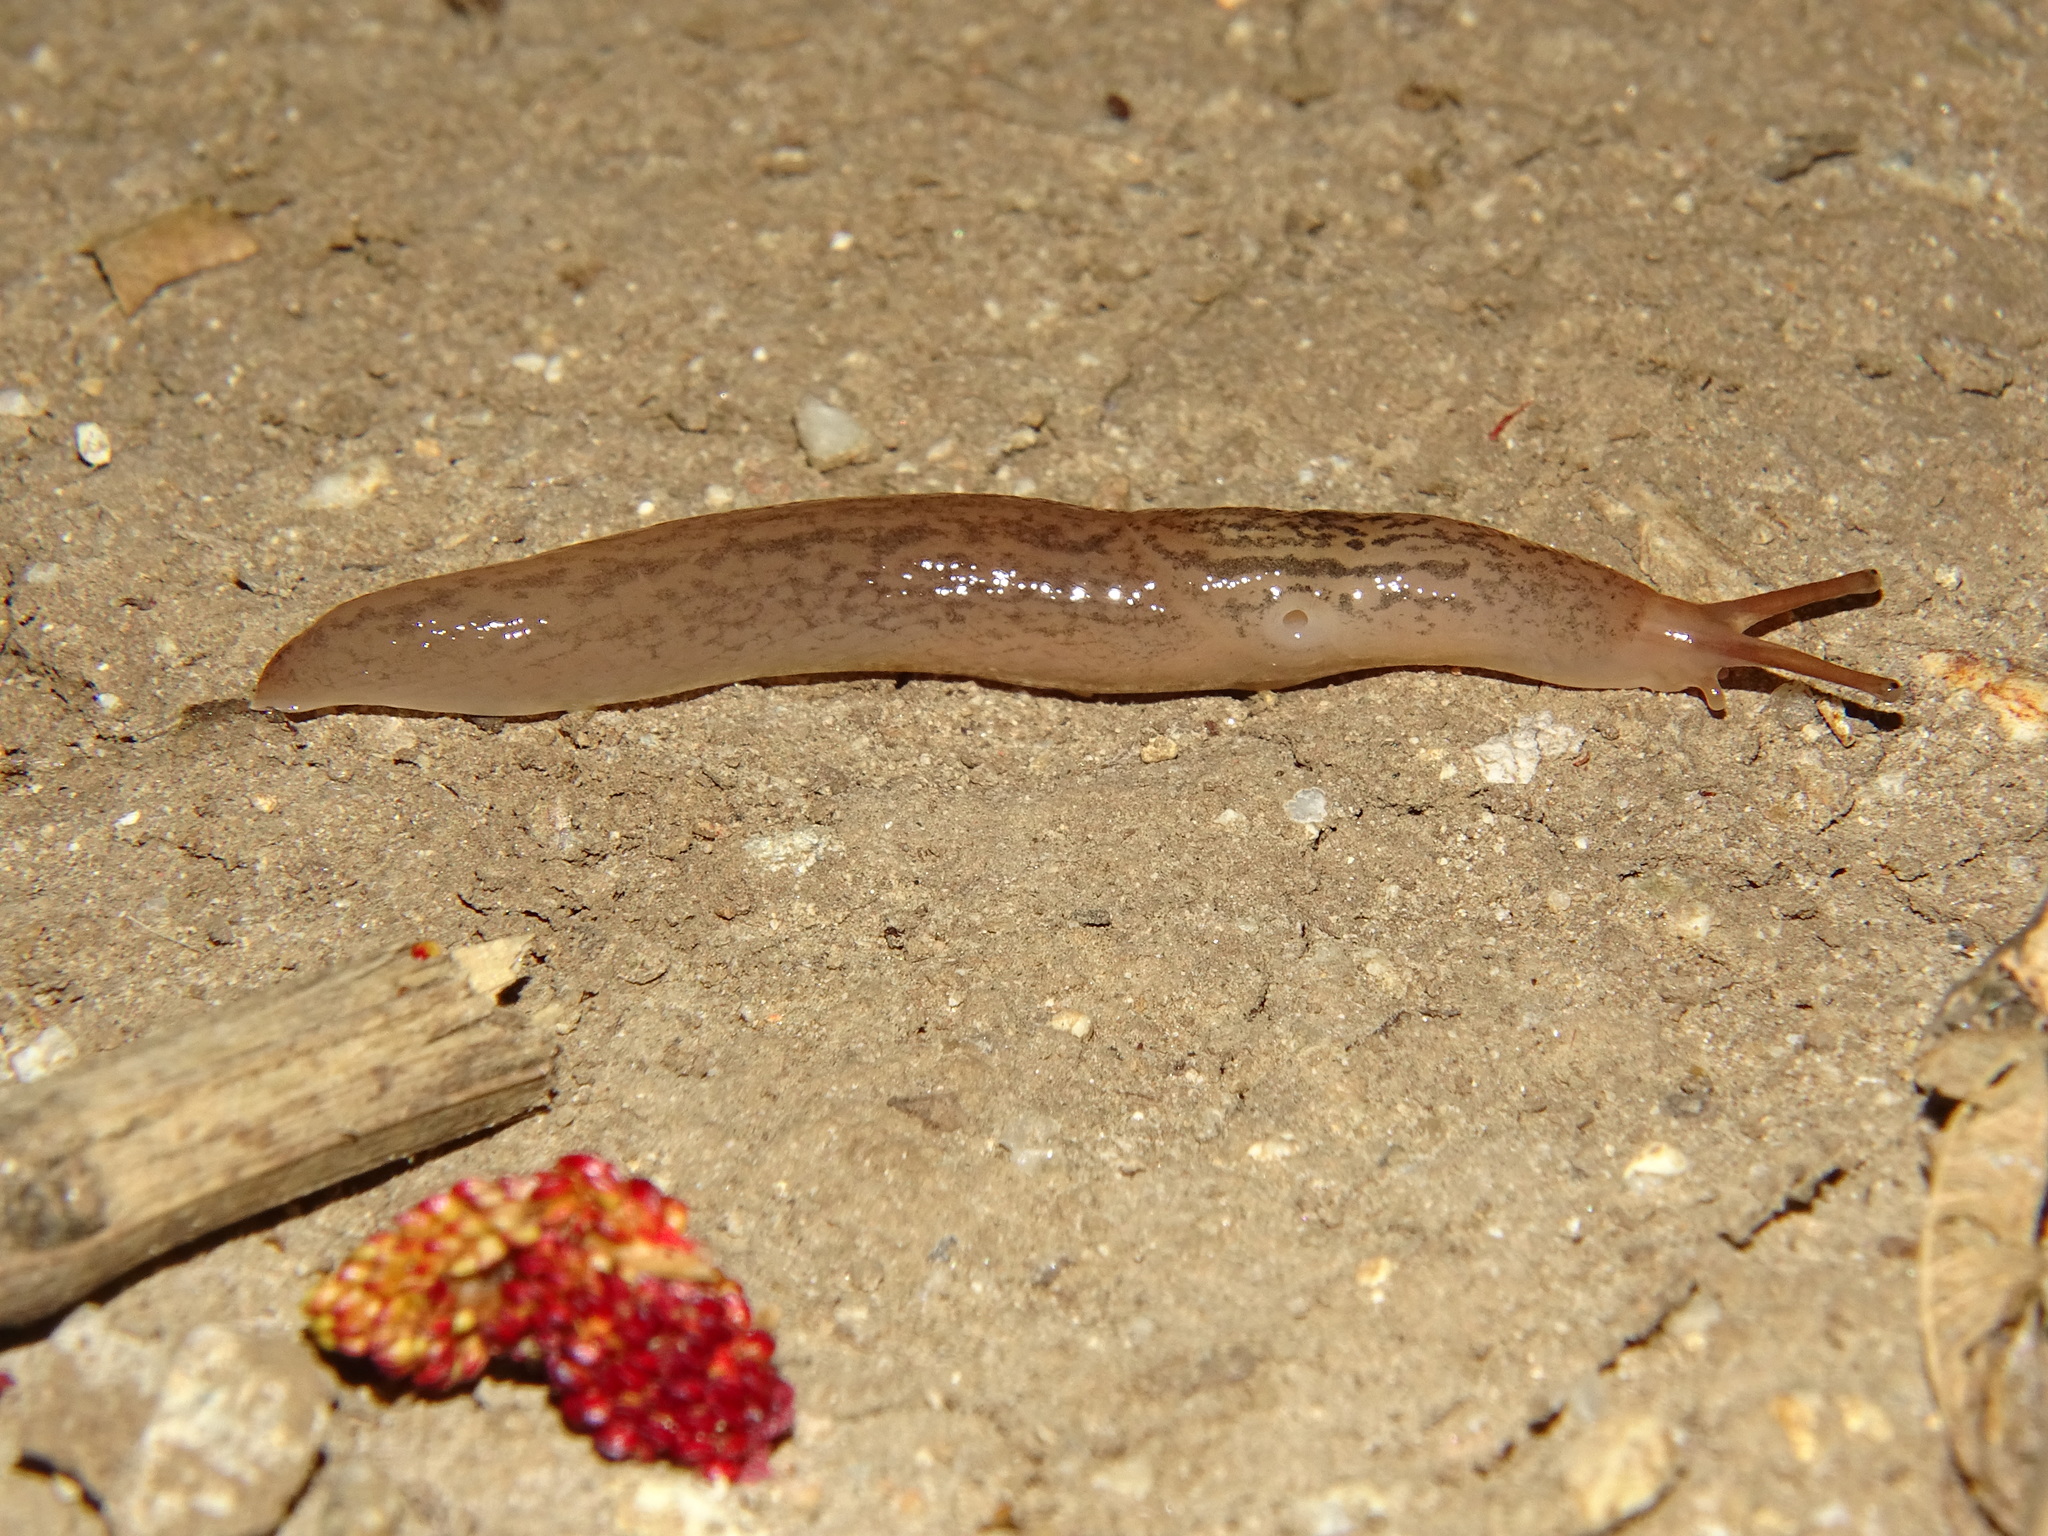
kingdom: Animalia
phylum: Mollusca
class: Gastropoda
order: Stylommatophora
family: Limacidae
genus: Ambigolimax
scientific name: Ambigolimax
